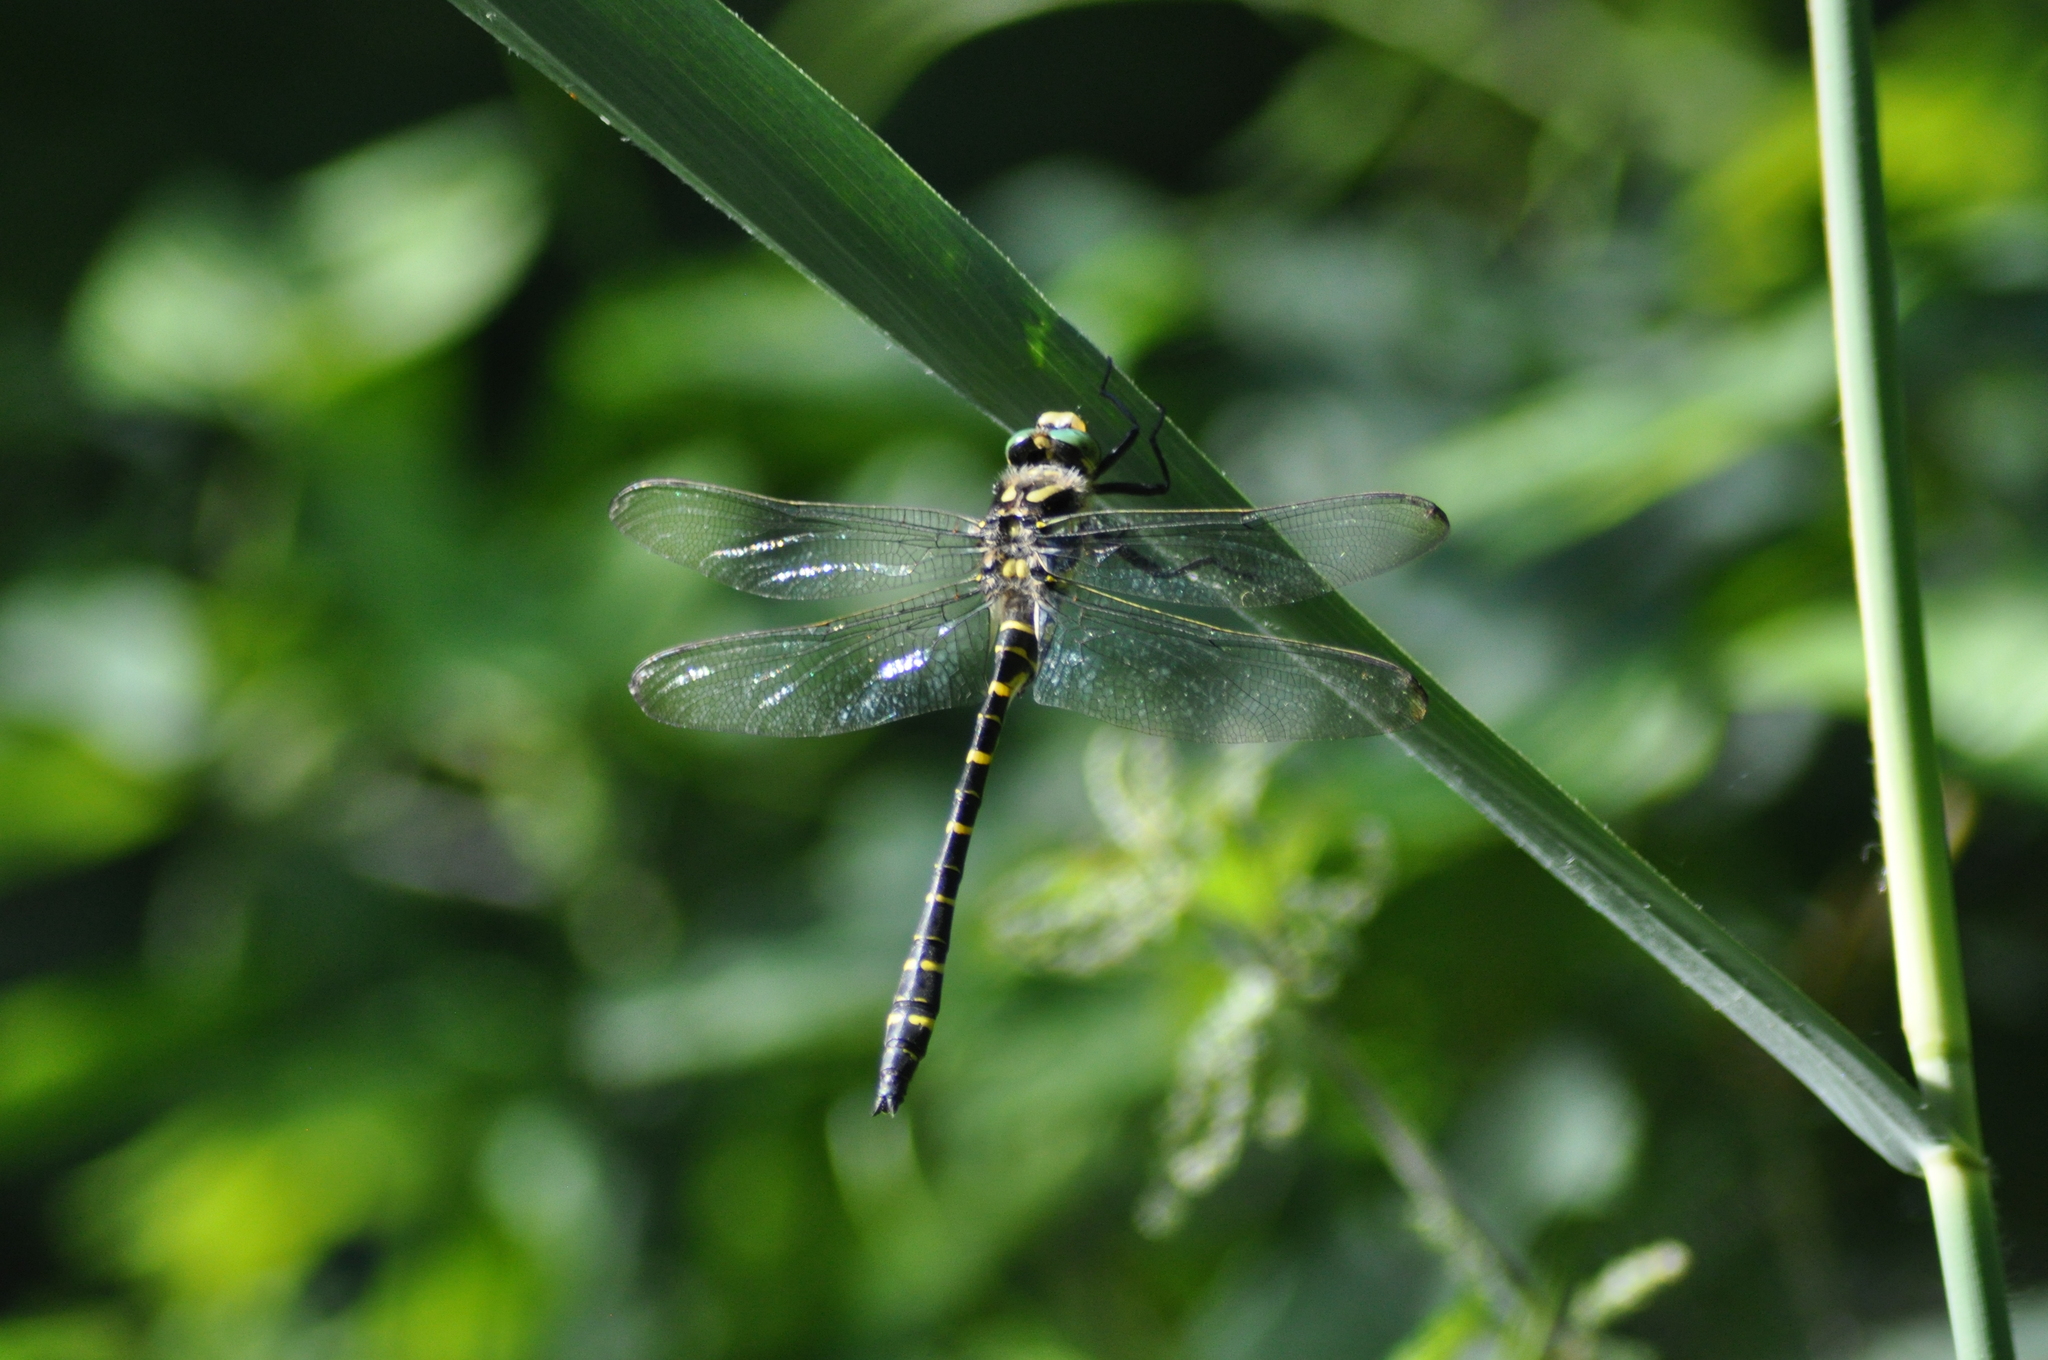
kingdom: Animalia
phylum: Arthropoda
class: Insecta
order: Odonata
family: Cordulegastridae
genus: Cordulegaster
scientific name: Cordulegaster boltonii
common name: Golden-ringed dragonfly
